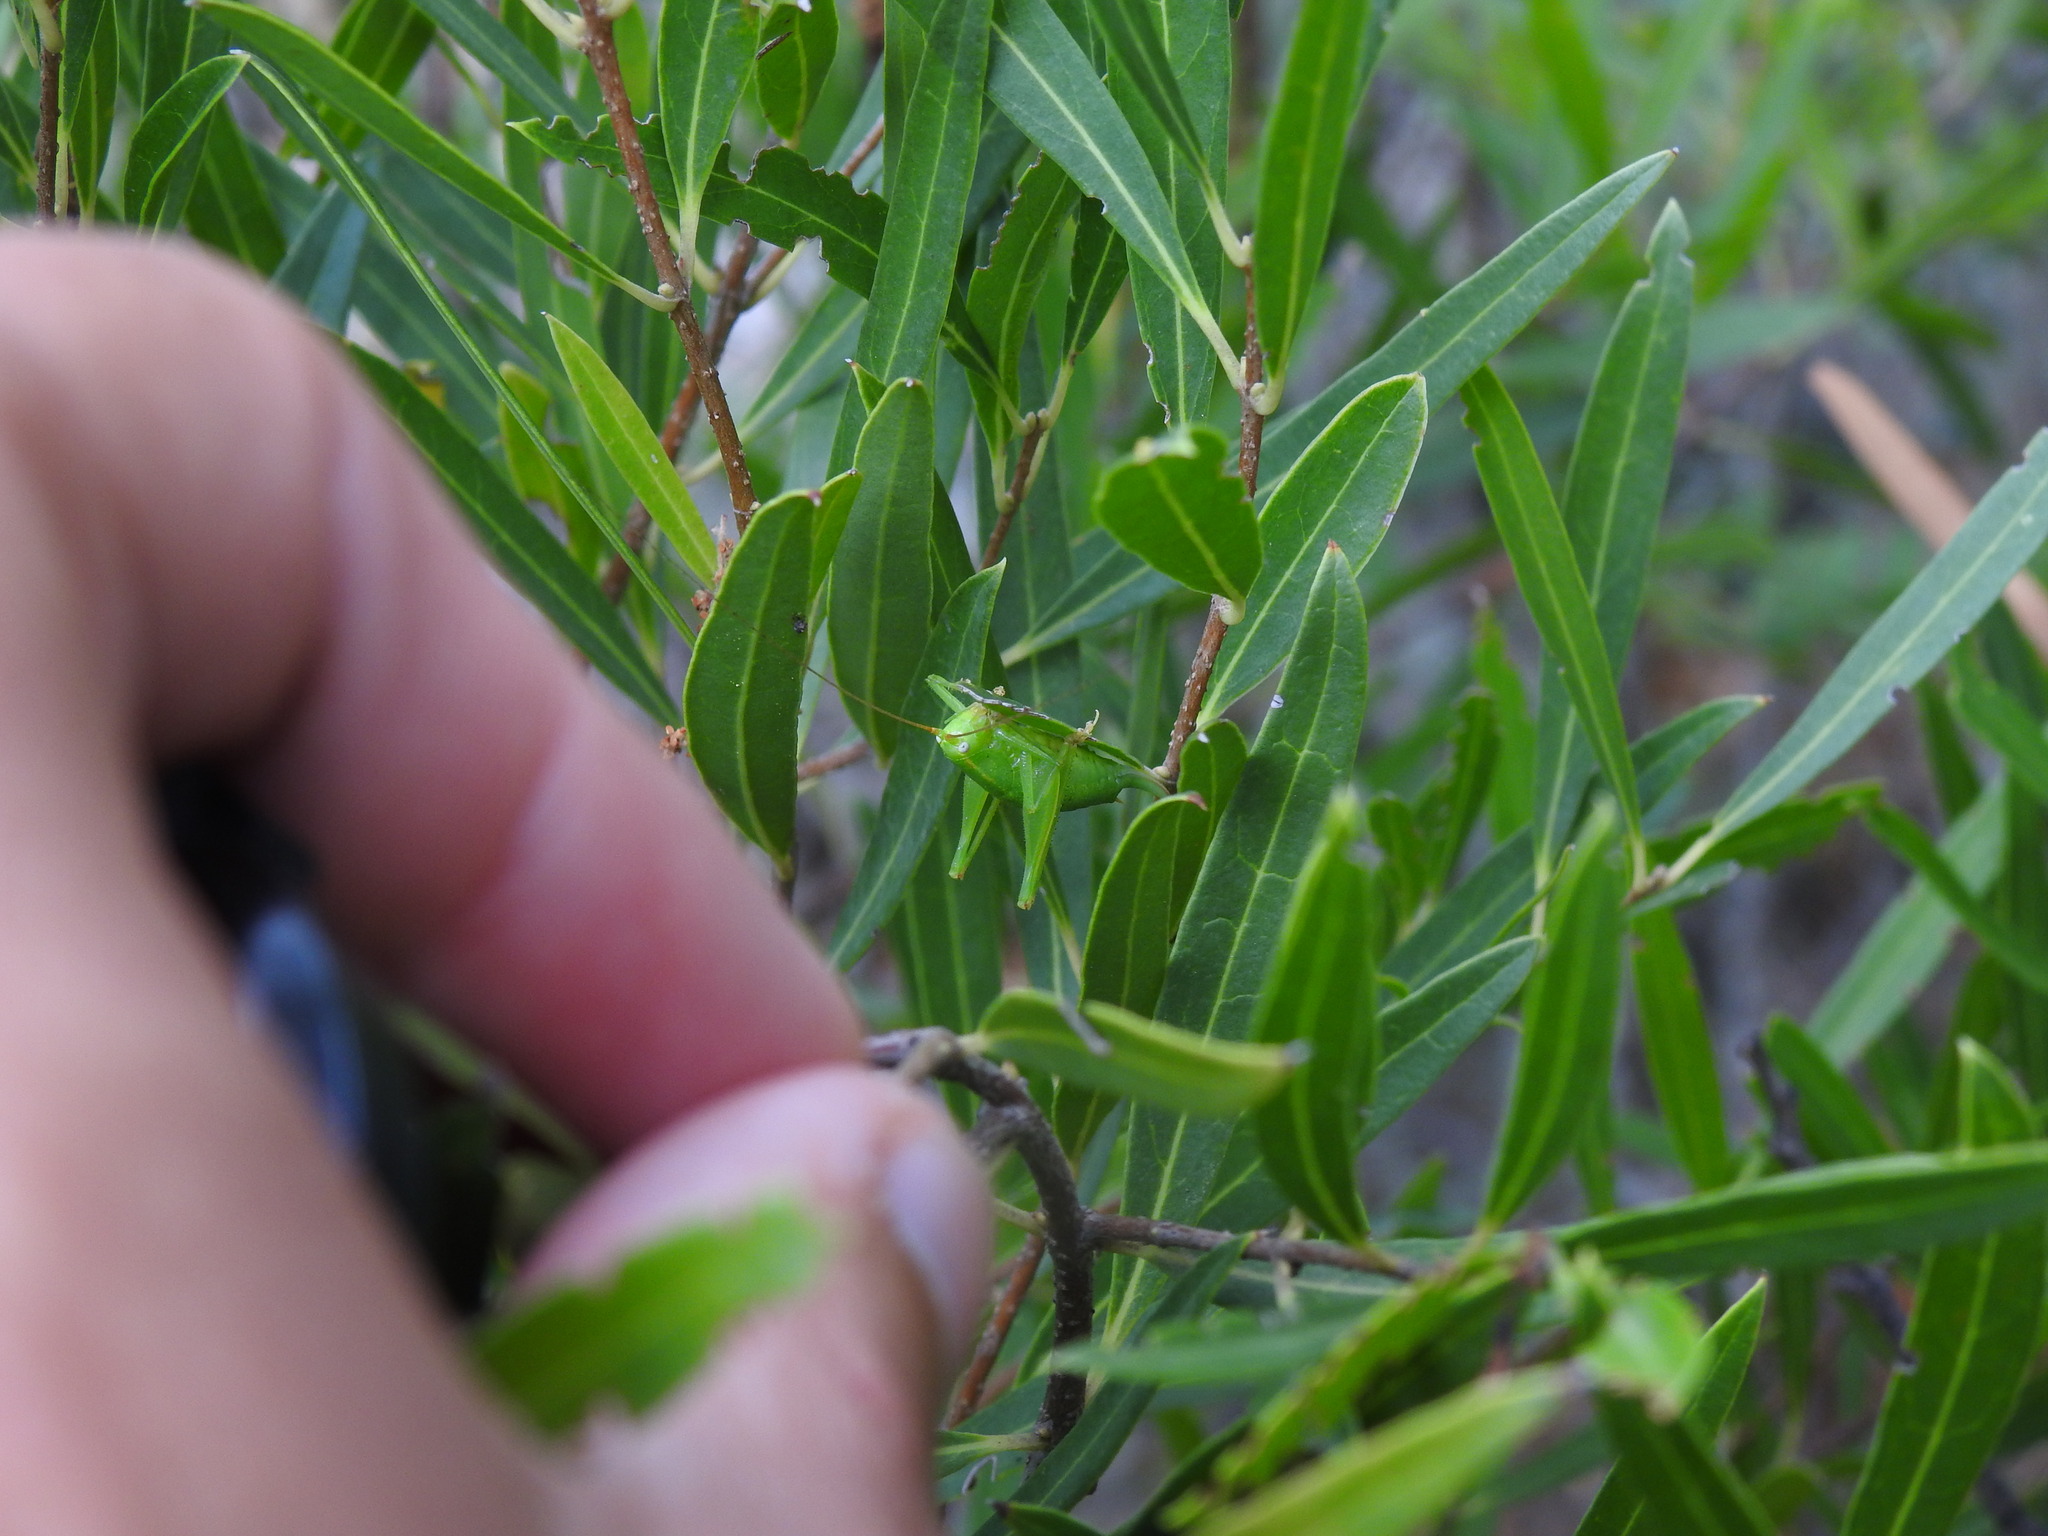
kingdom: Plantae
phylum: Tracheophyta
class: Magnoliopsida
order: Lamiales
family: Oleaceae
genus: Phillyrea
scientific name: Phillyrea angustifolia
